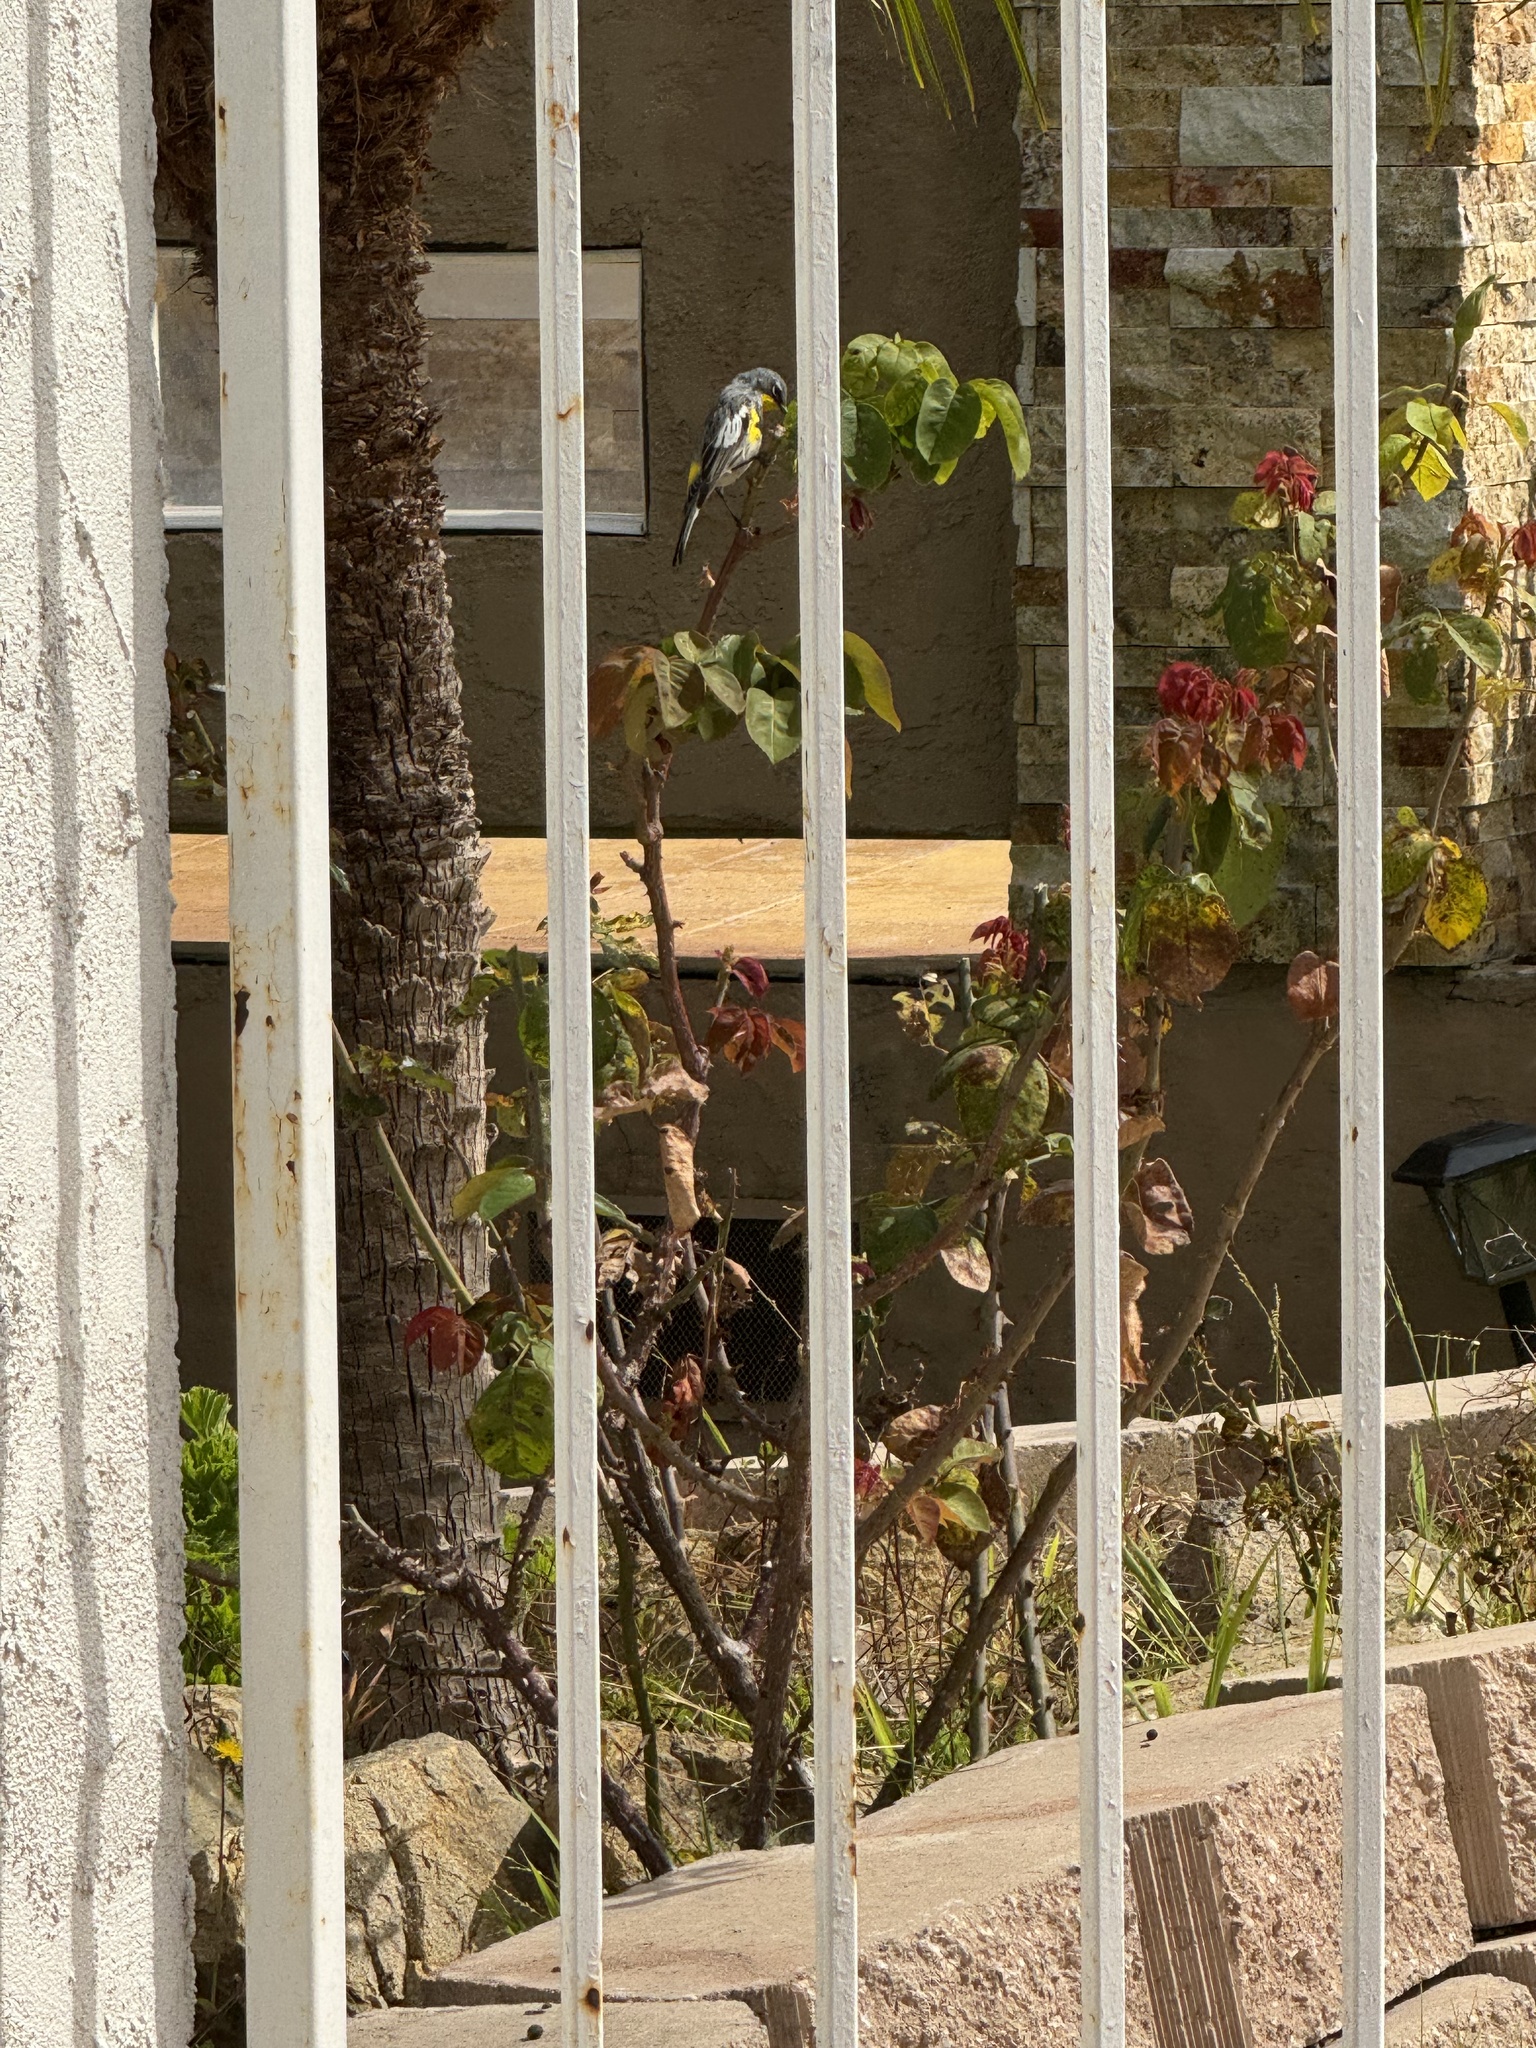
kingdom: Animalia
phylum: Chordata
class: Aves
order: Passeriformes
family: Parulidae
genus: Setophaga
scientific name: Setophaga auduboni
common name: Audubon's warbler
